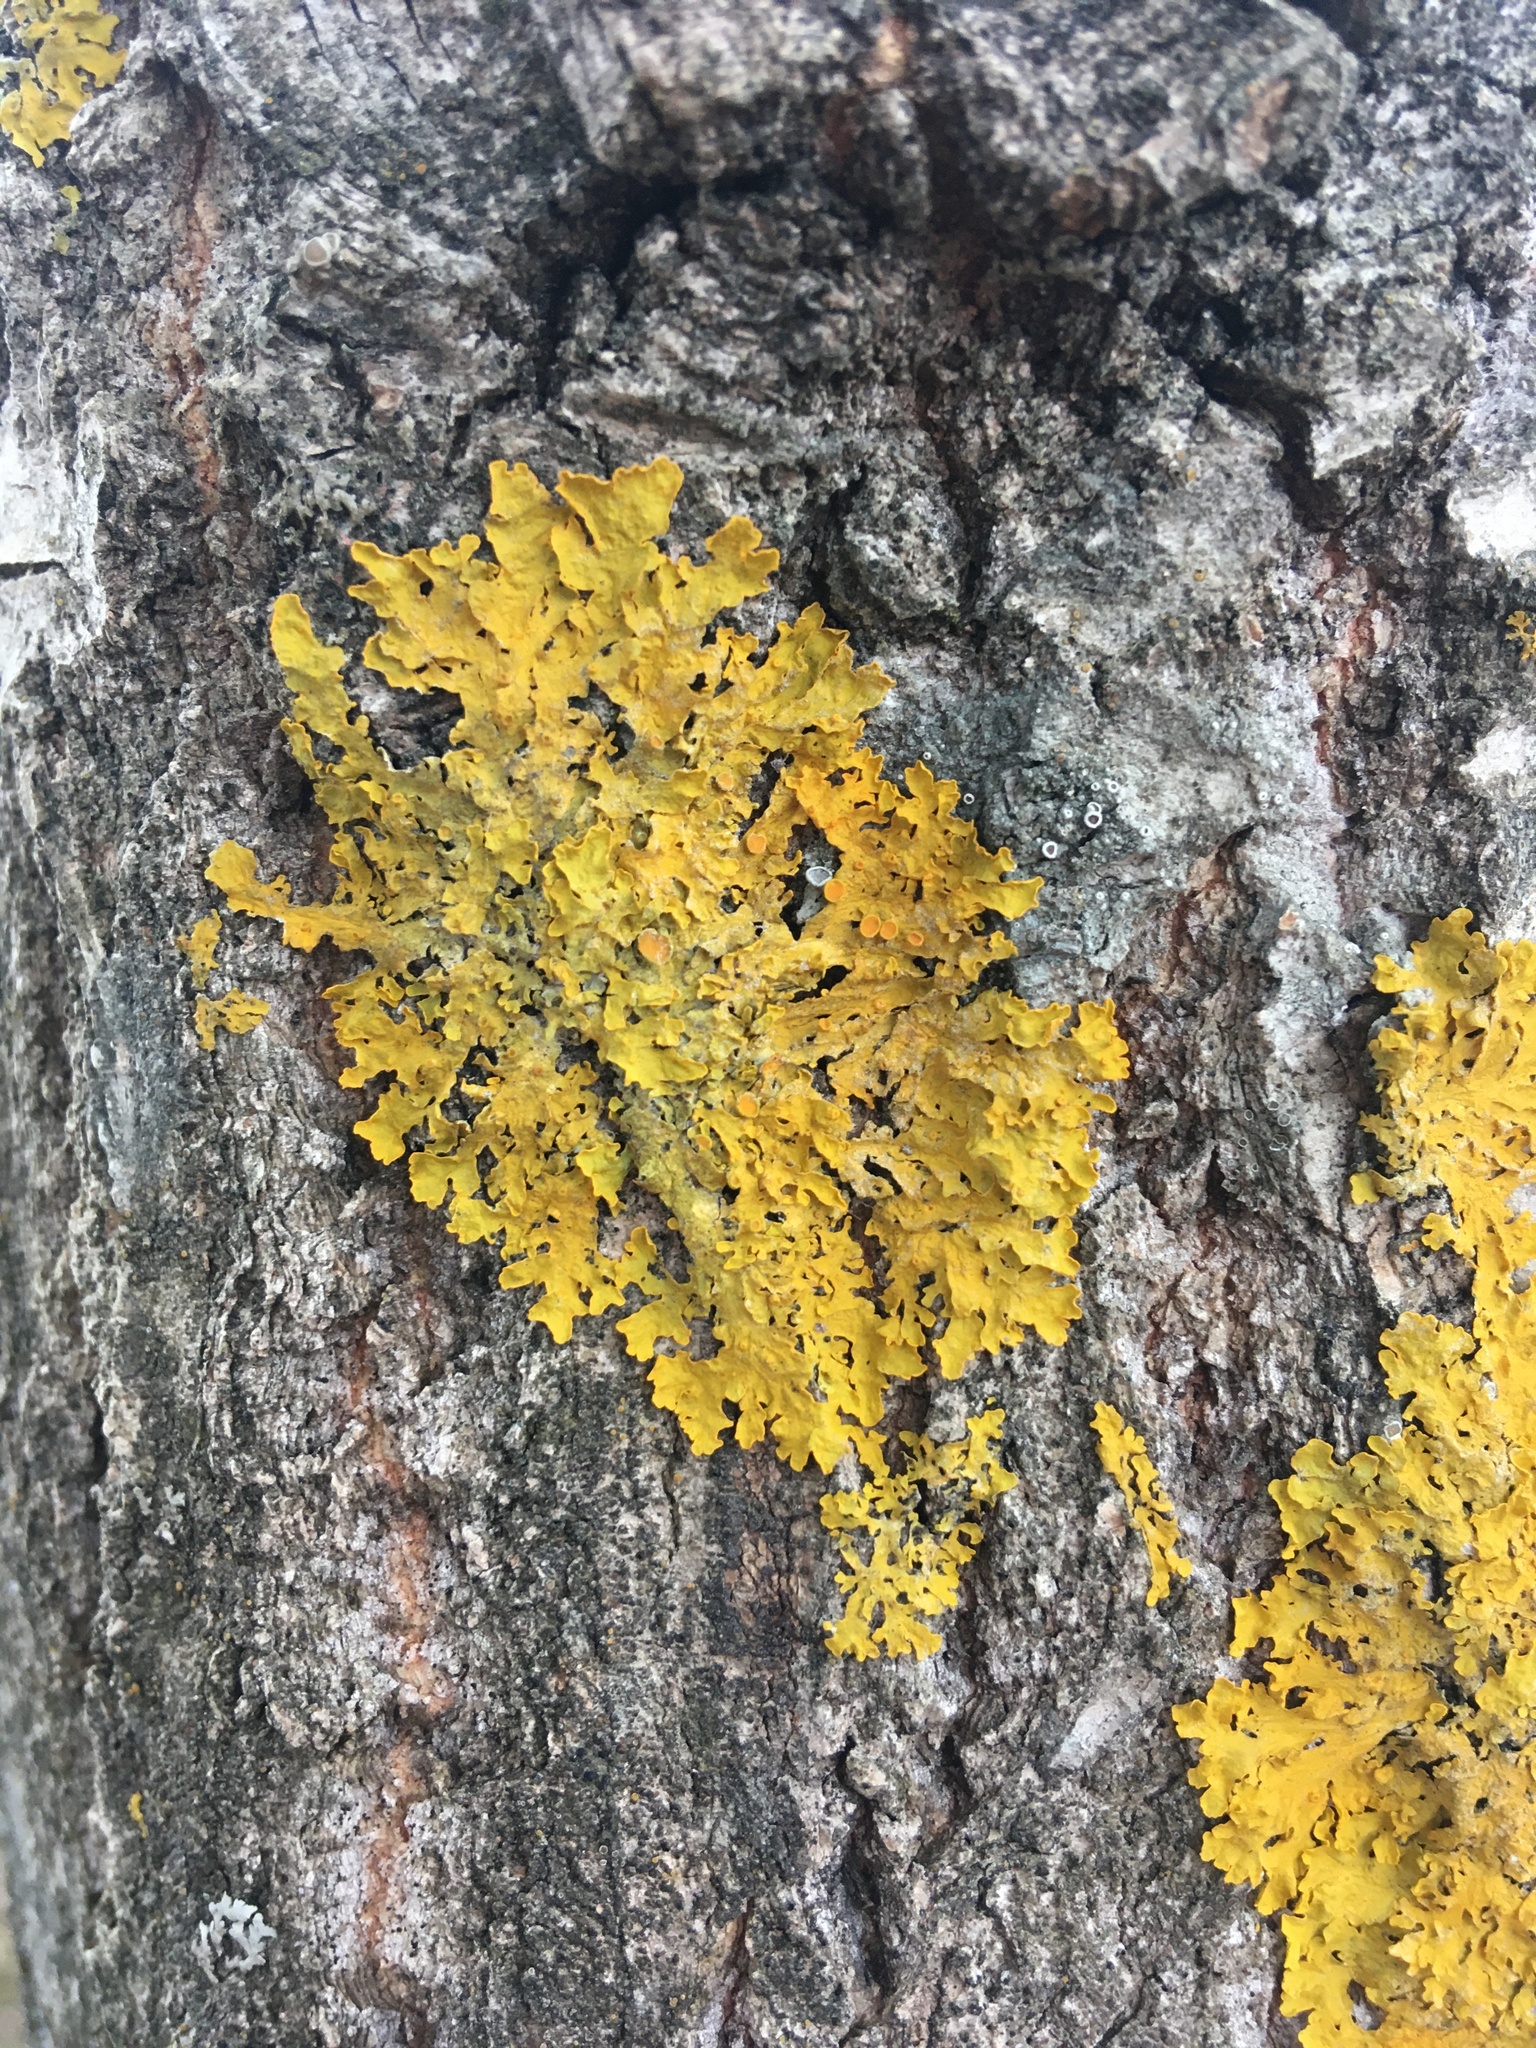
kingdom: Fungi
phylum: Ascomycota
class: Lecanoromycetes
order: Teloschistales
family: Teloschistaceae
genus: Xanthoria
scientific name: Xanthoria parietina
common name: Common orange lichen
